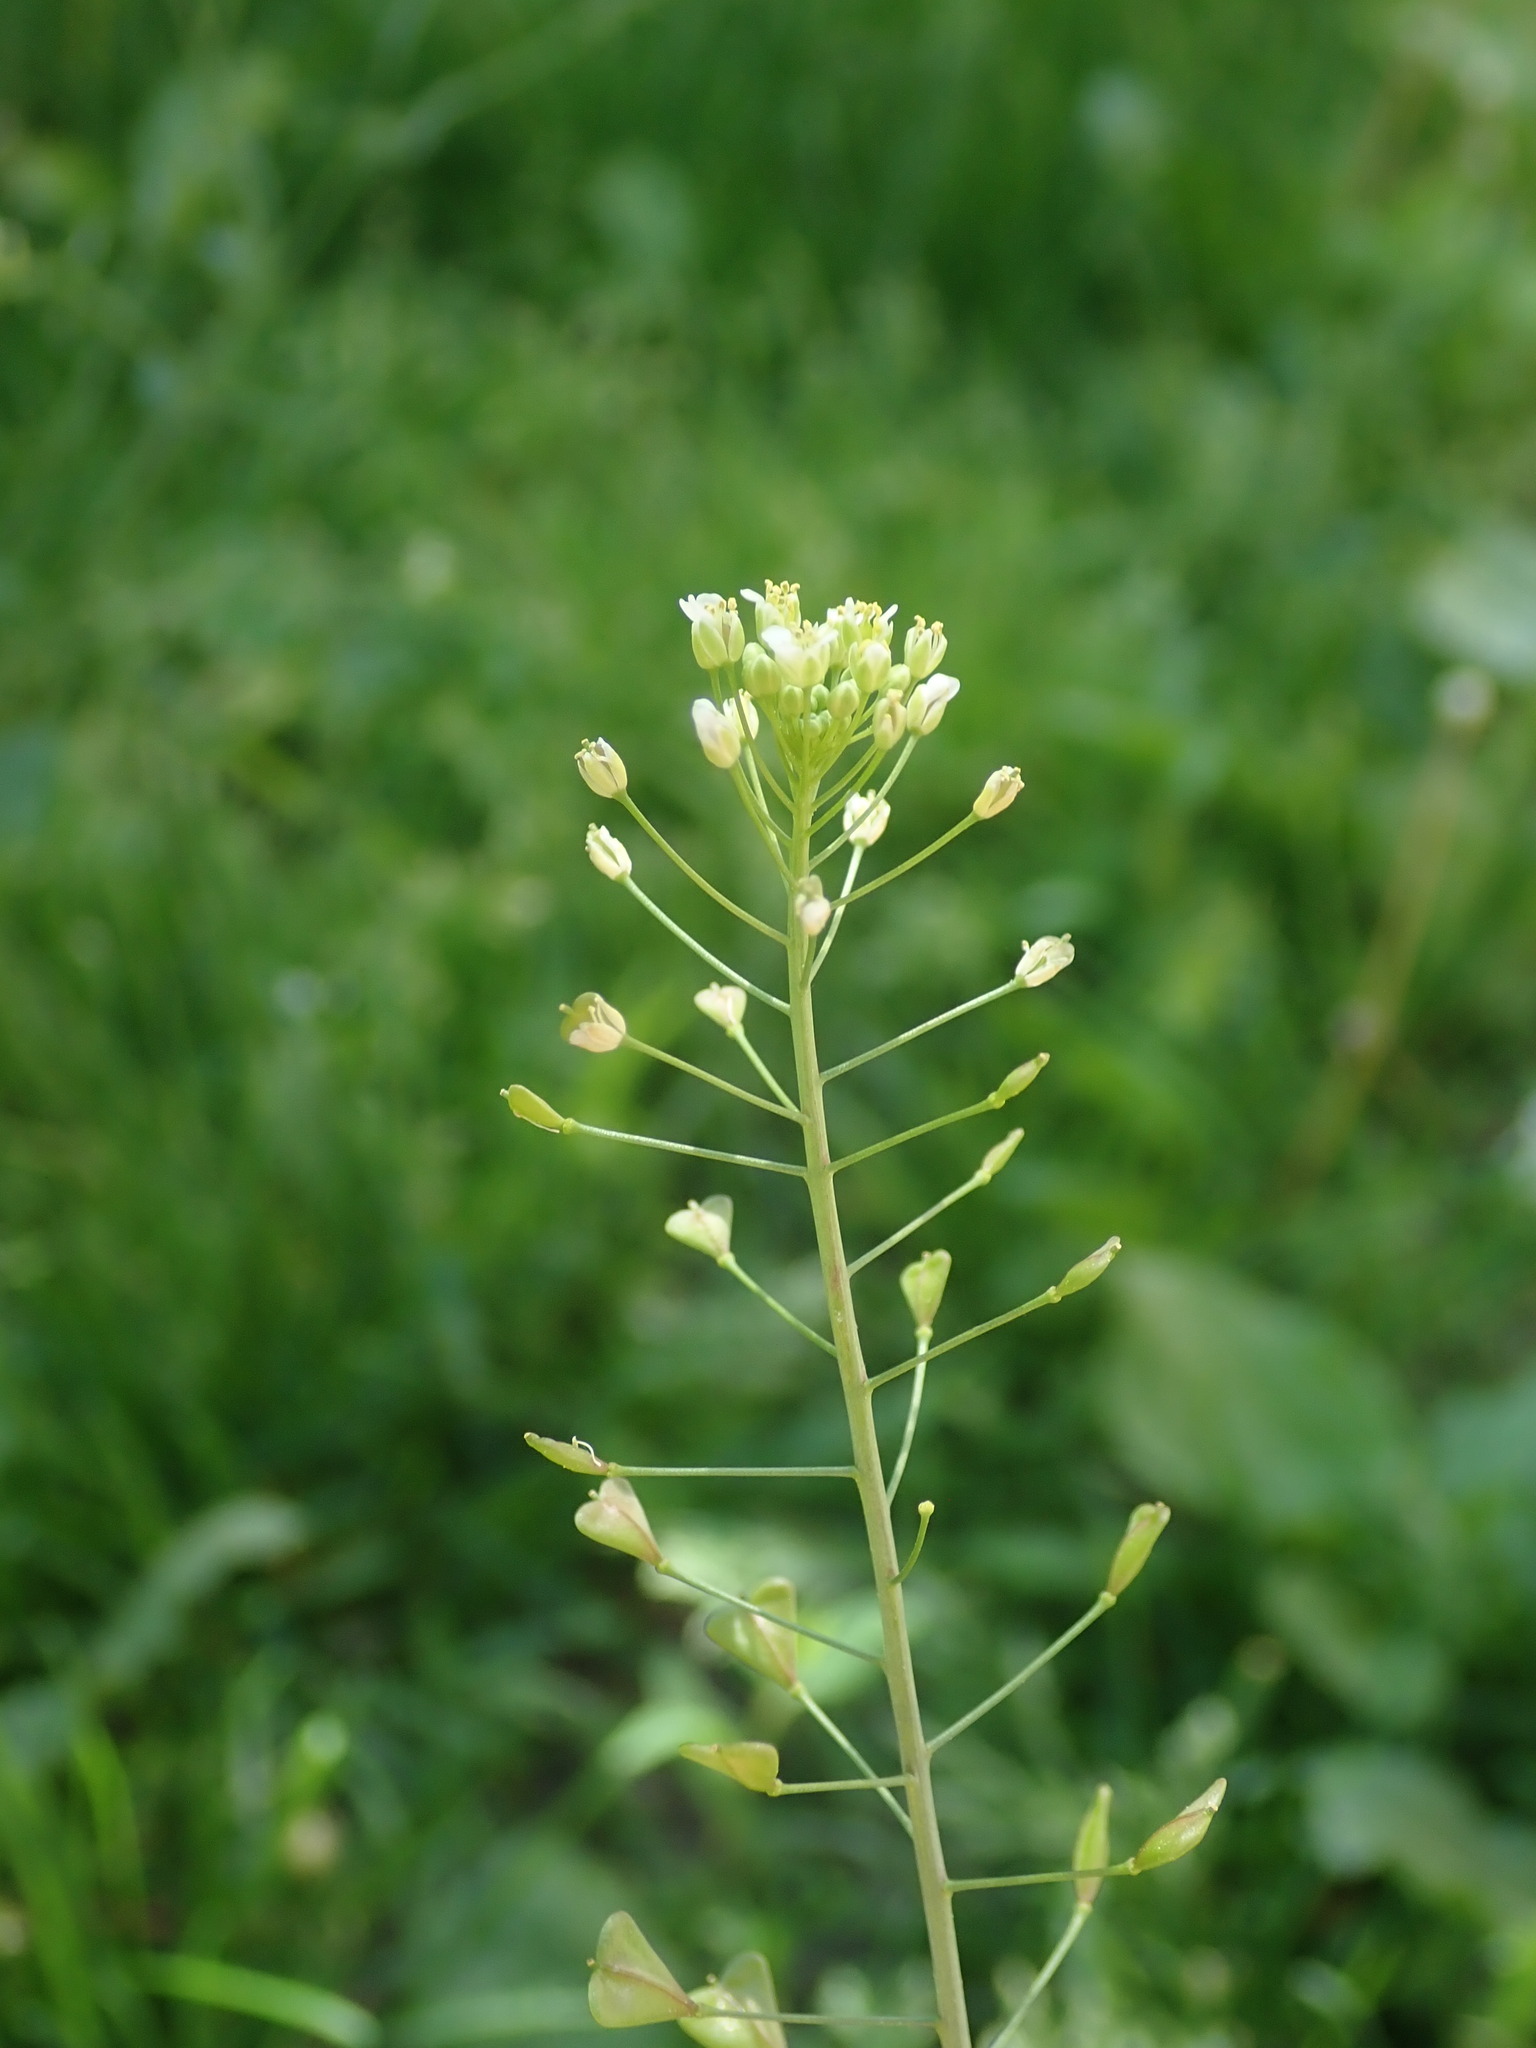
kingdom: Plantae
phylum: Tracheophyta
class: Magnoliopsida
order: Brassicales
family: Brassicaceae
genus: Capsella
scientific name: Capsella bursa-pastoris
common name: Shepherd's purse
